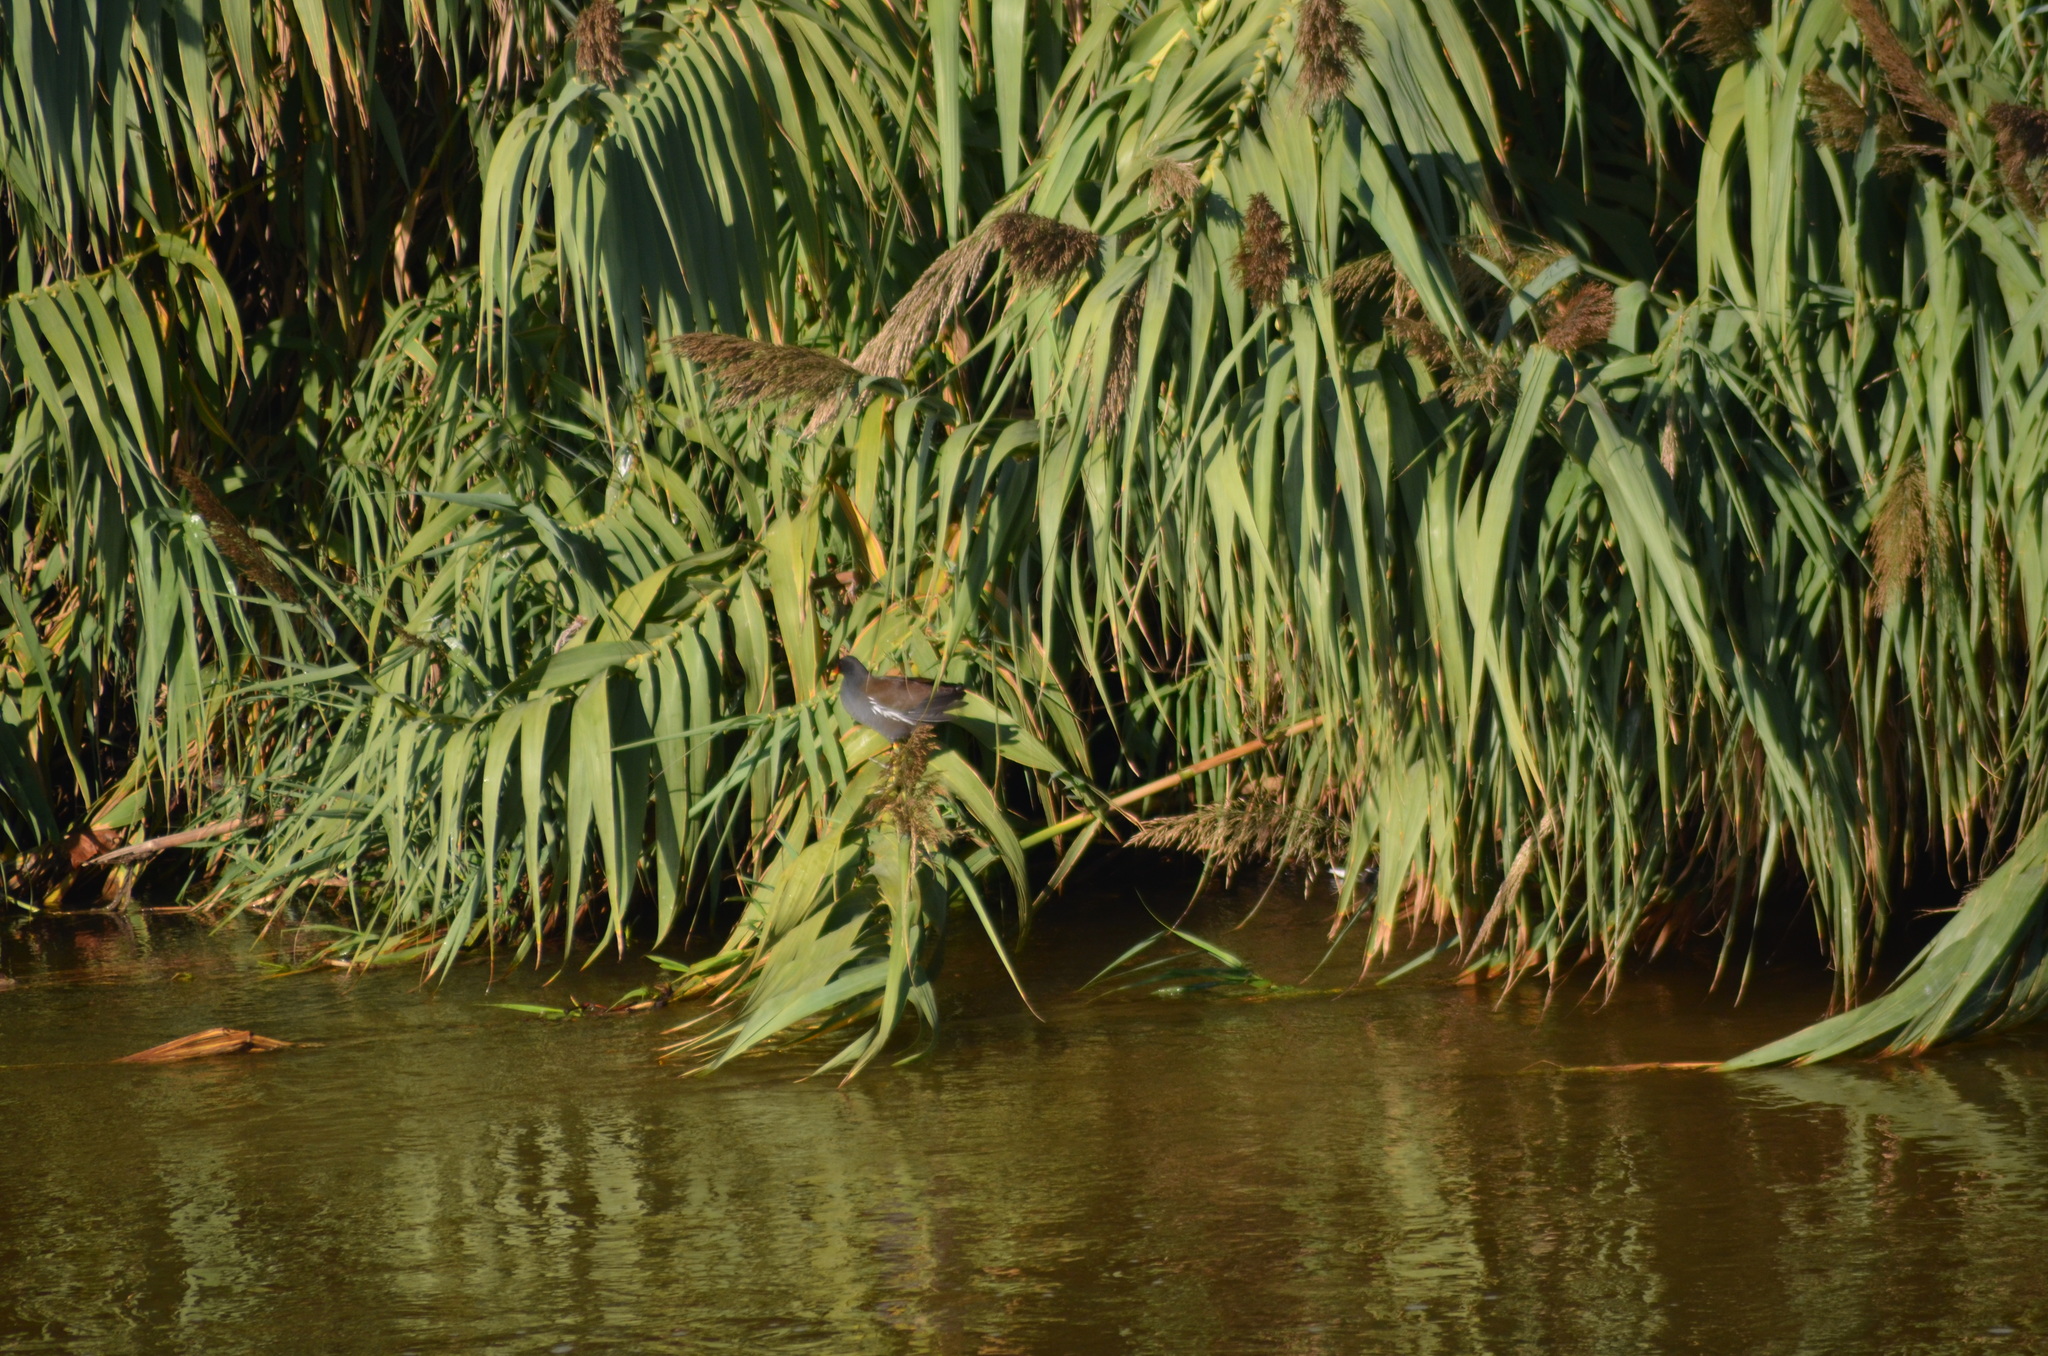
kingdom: Animalia
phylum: Chordata
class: Aves
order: Gruiformes
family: Rallidae
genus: Gallinula
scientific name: Gallinula chloropus
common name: Common moorhen
